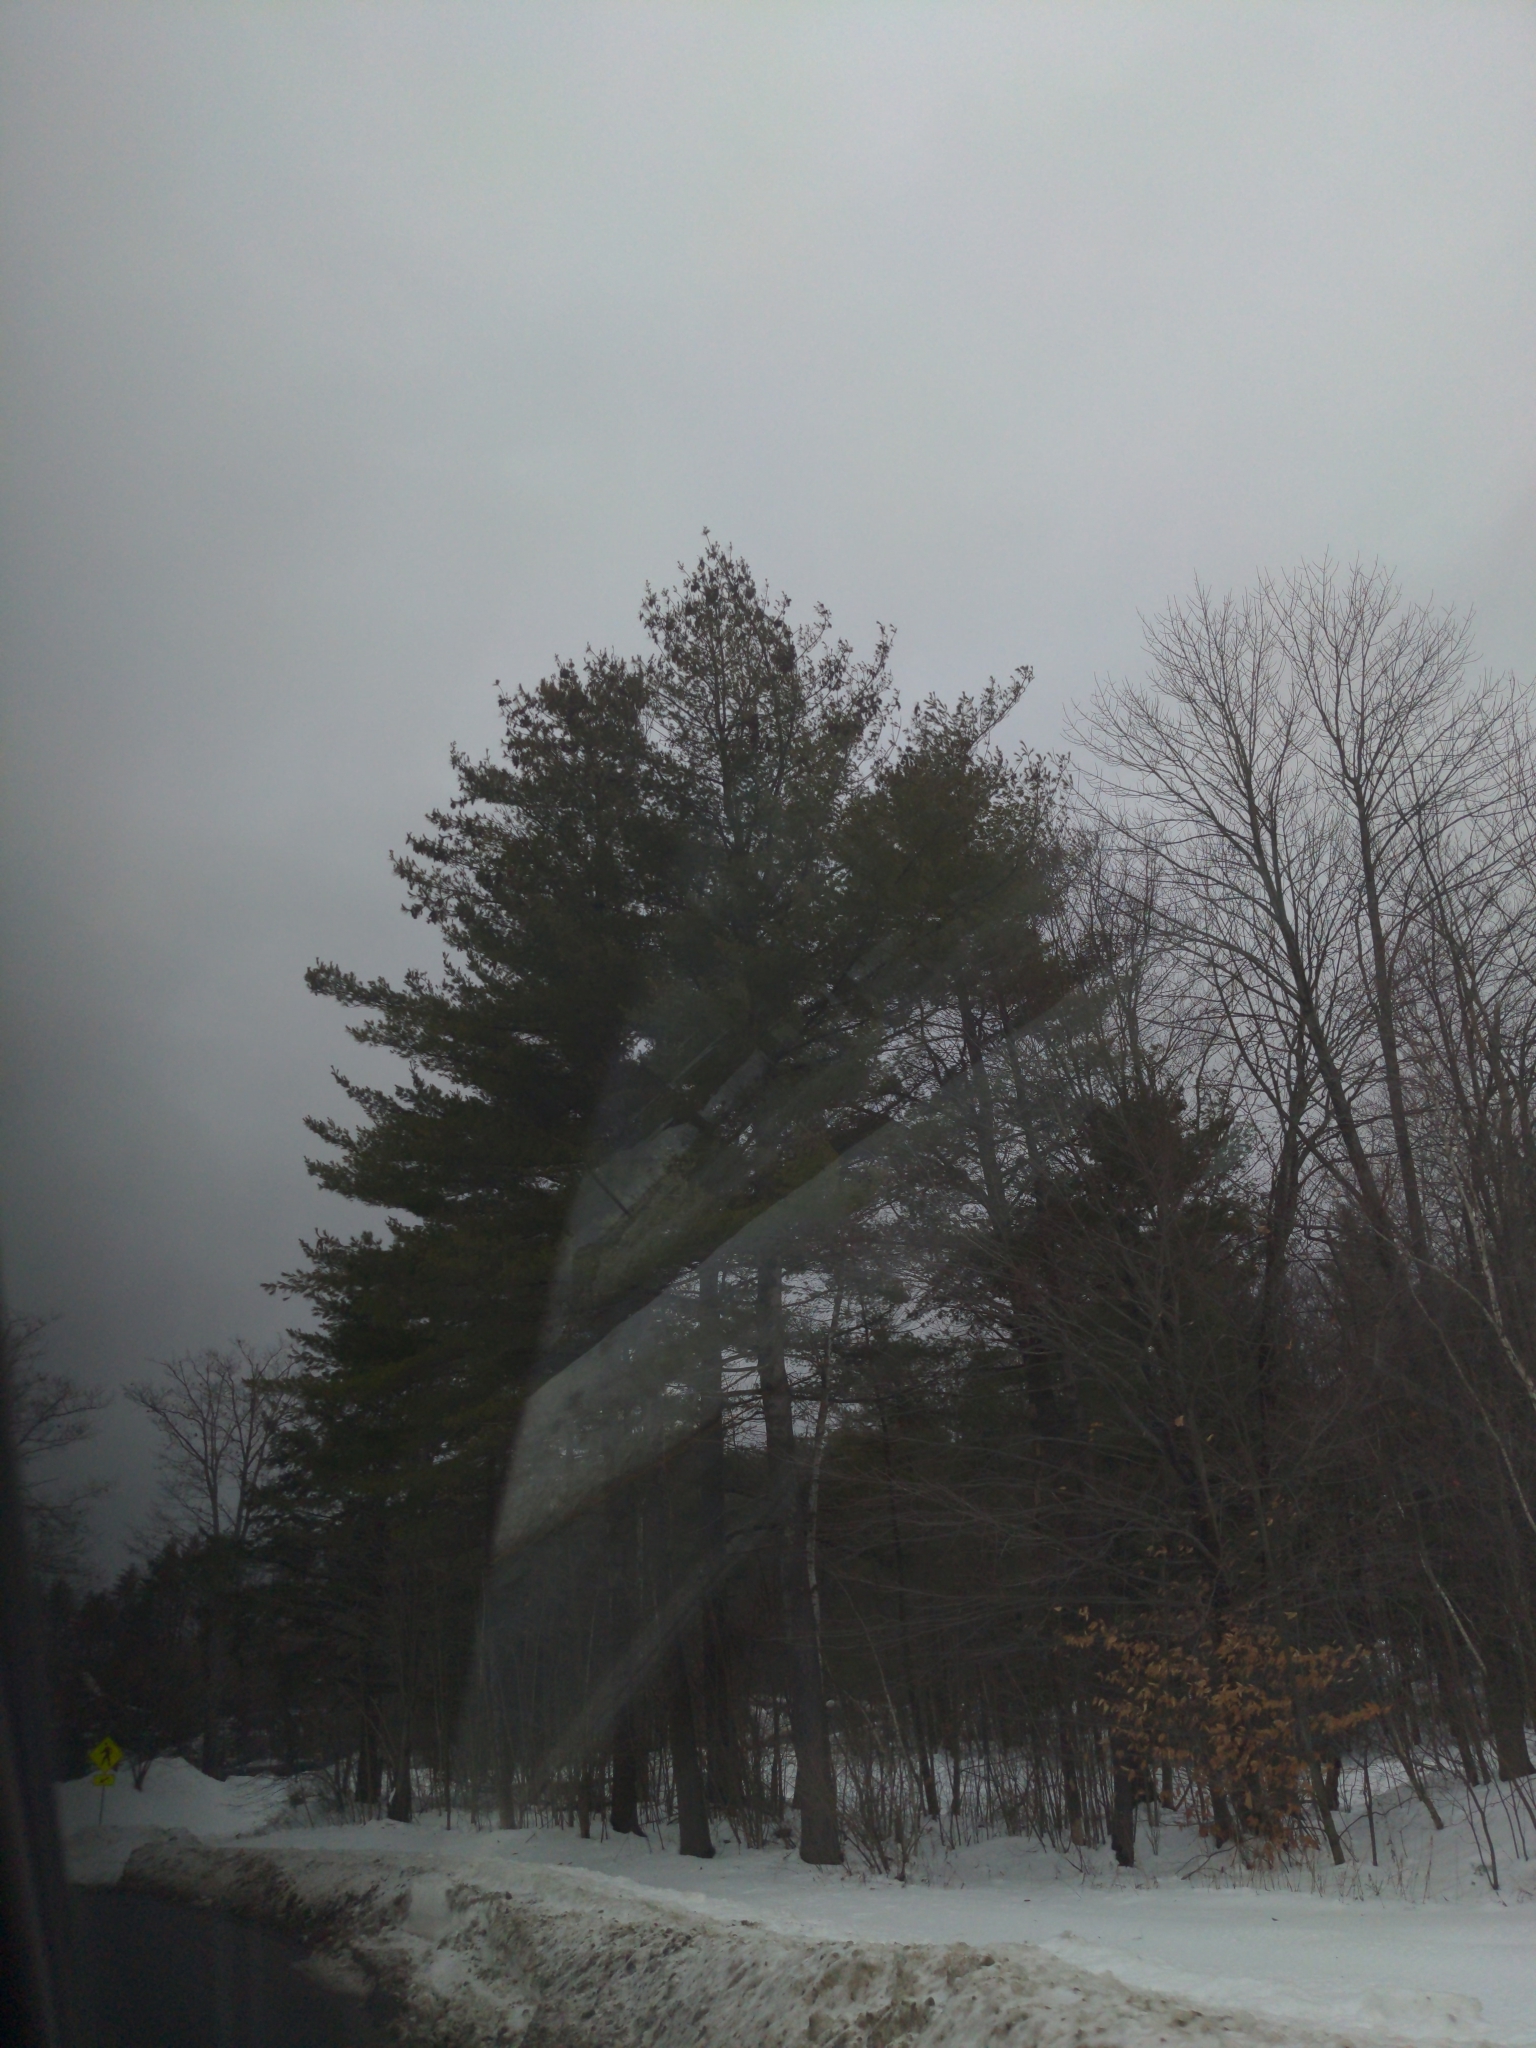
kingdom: Plantae
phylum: Tracheophyta
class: Pinopsida
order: Pinales
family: Pinaceae
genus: Pinus
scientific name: Pinus strobus
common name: Weymouth pine
